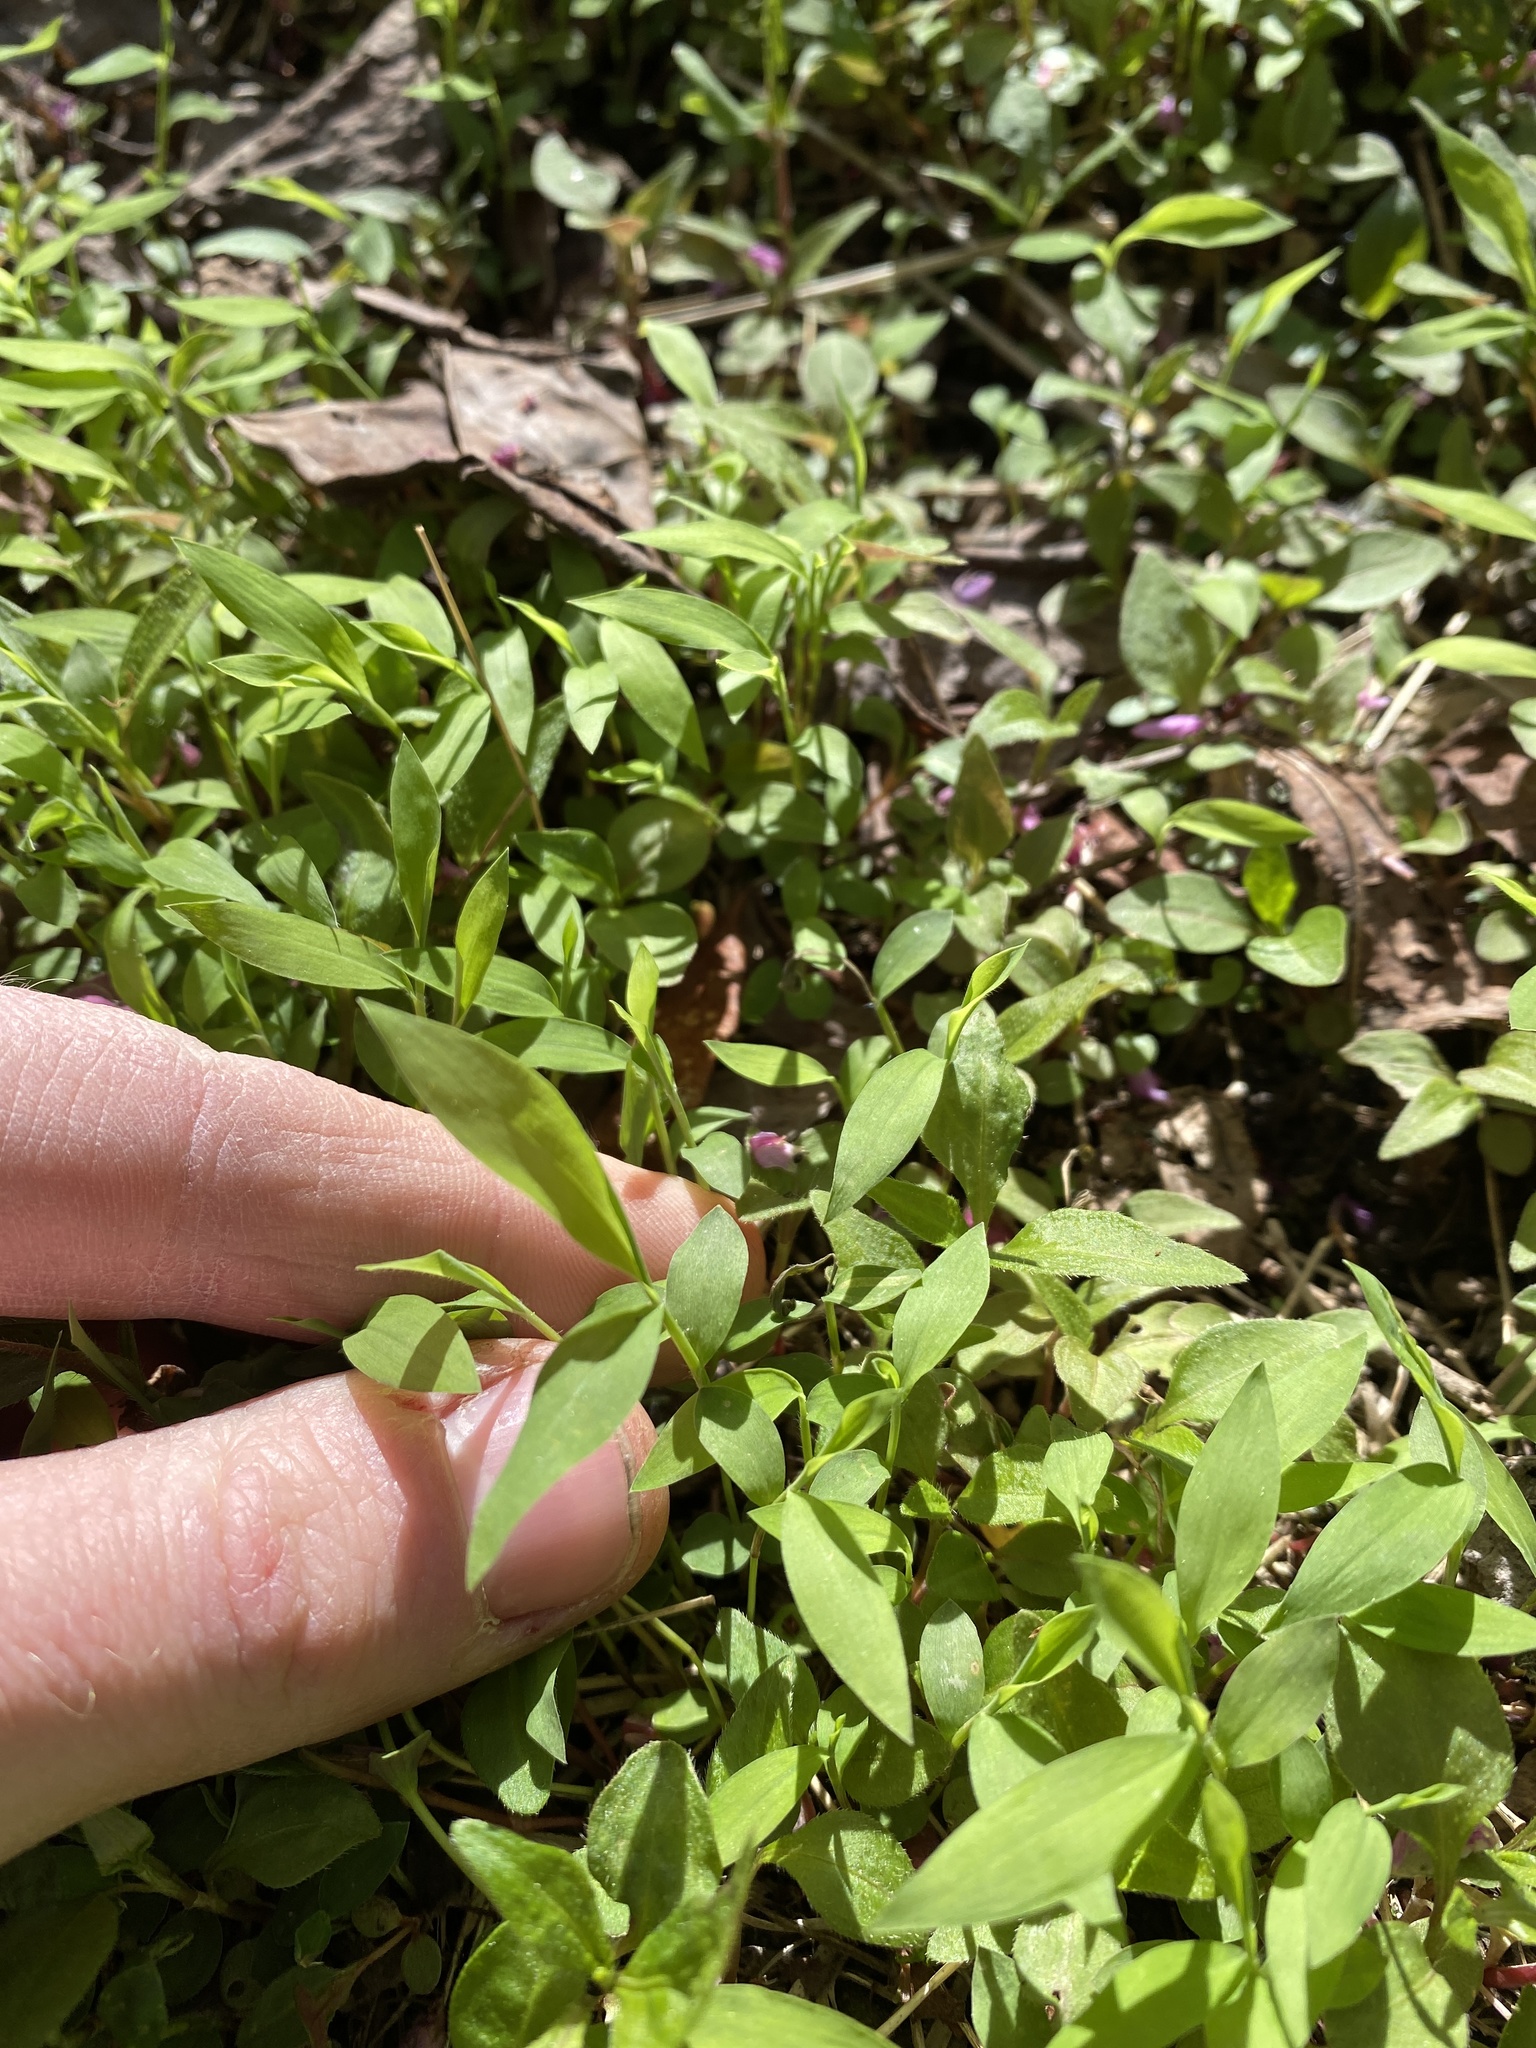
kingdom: Plantae
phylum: Tracheophyta
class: Liliopsida
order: Poales
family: Poaceae
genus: Microstegium
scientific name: Microstegium vimineum
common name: Japanese stiltgrass
